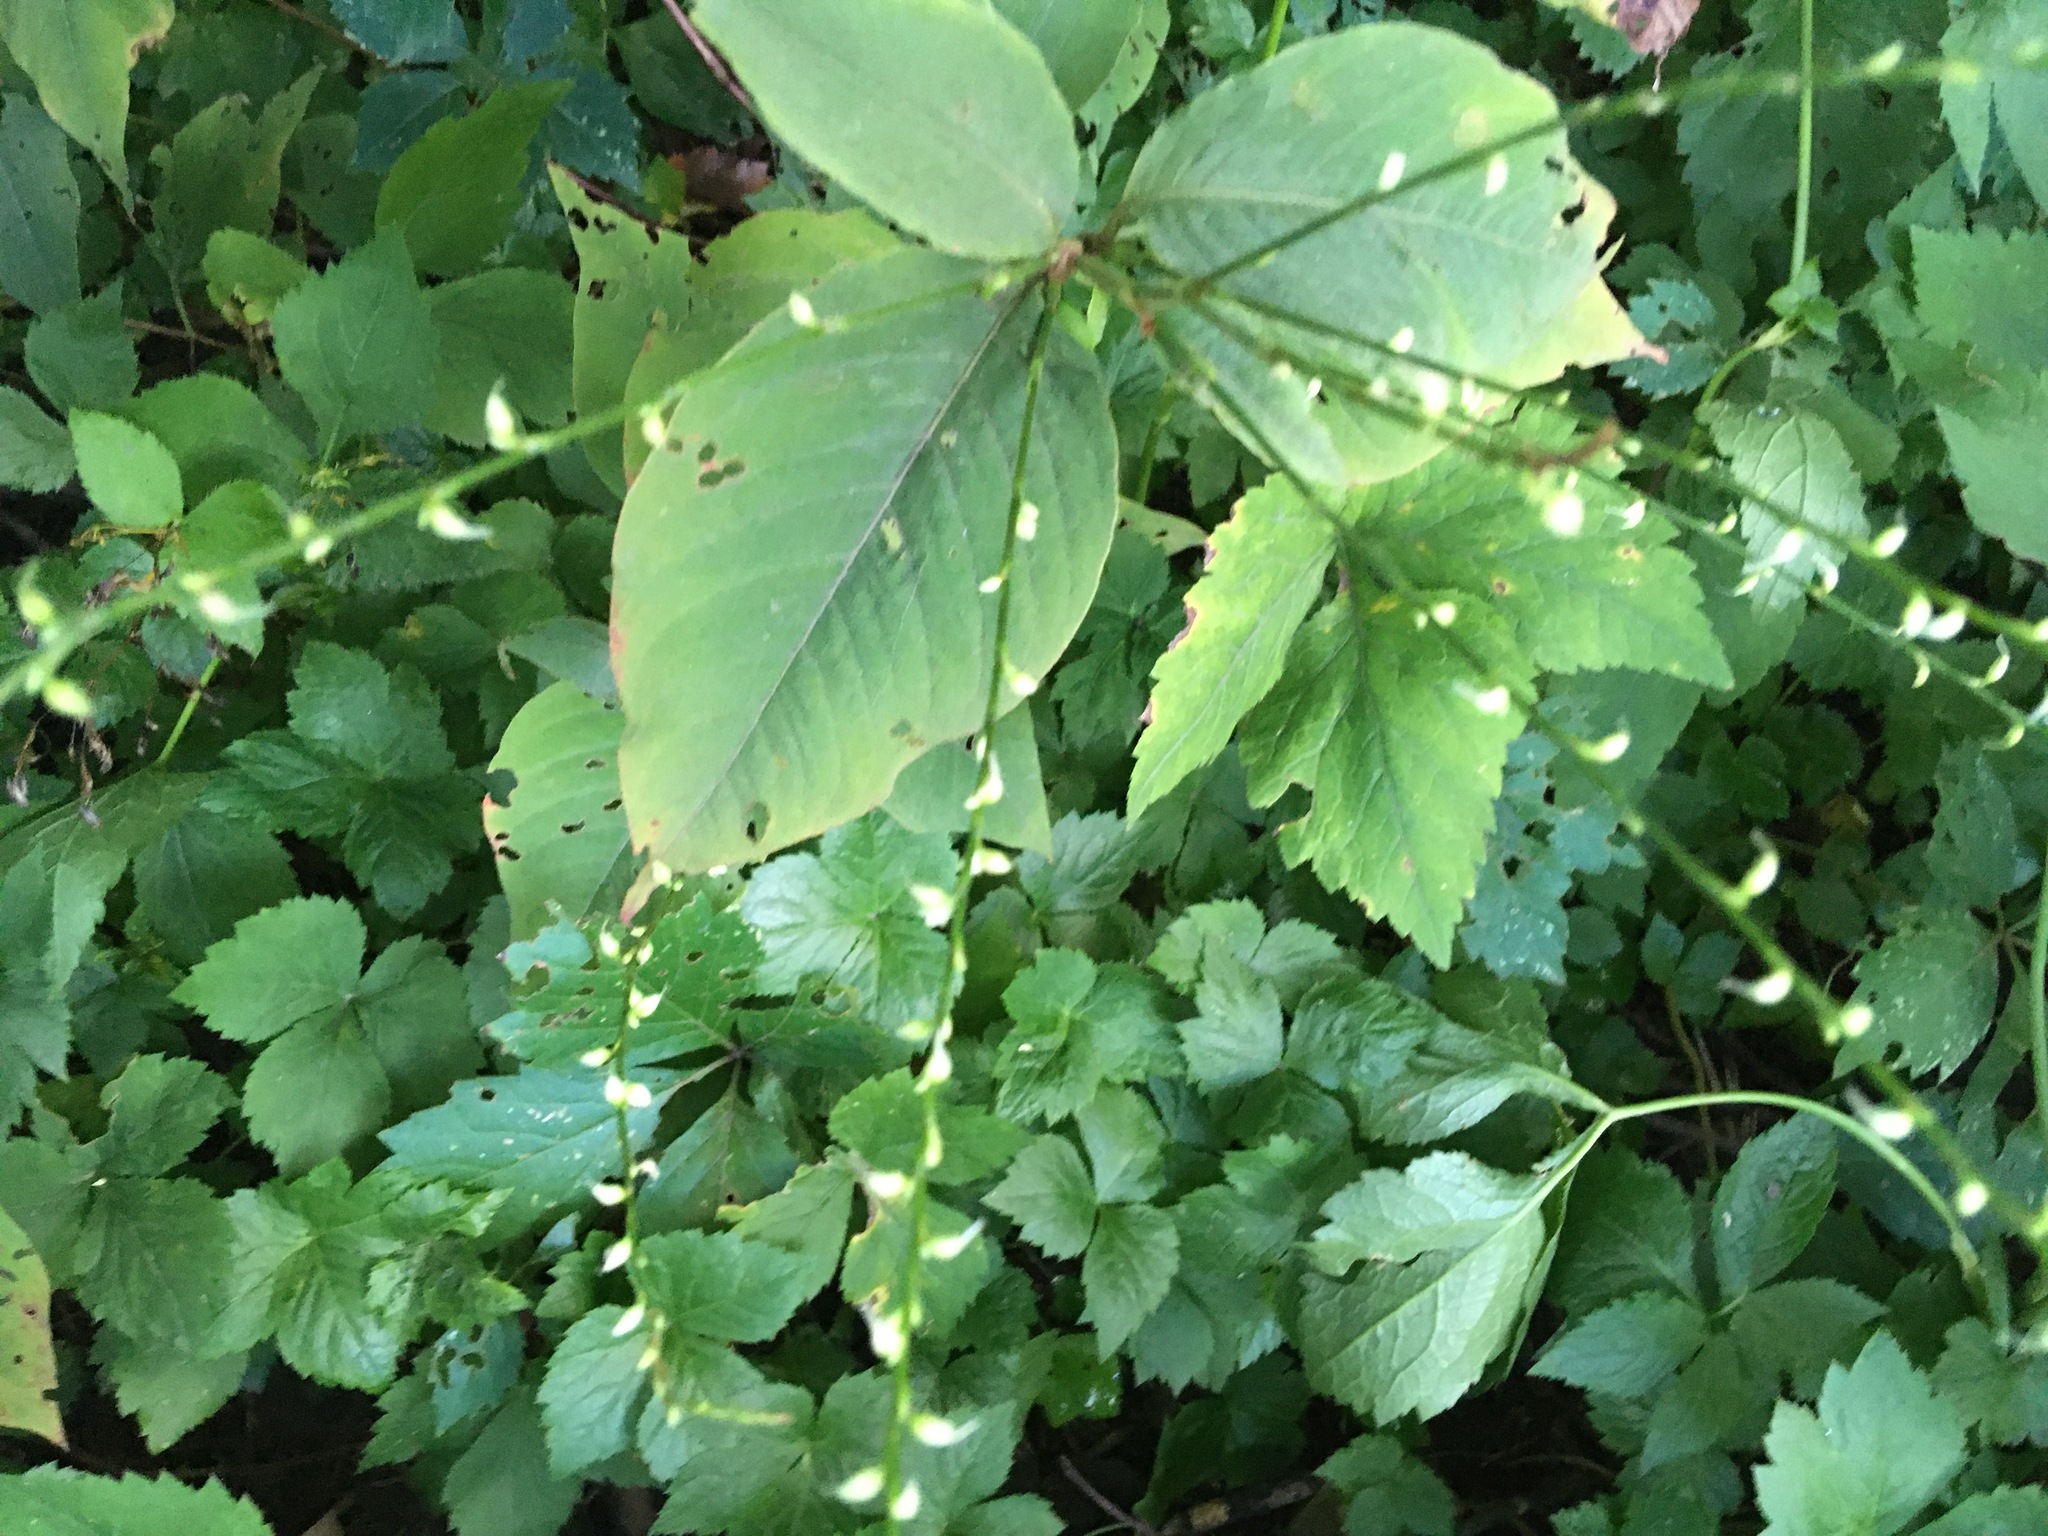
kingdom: Plantae
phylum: Tracheophyta
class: Magnoliopsida
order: Caryophyllales
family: Polygonaceae
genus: Persicaria
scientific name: Persicaria virginiana
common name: Jumpseed
